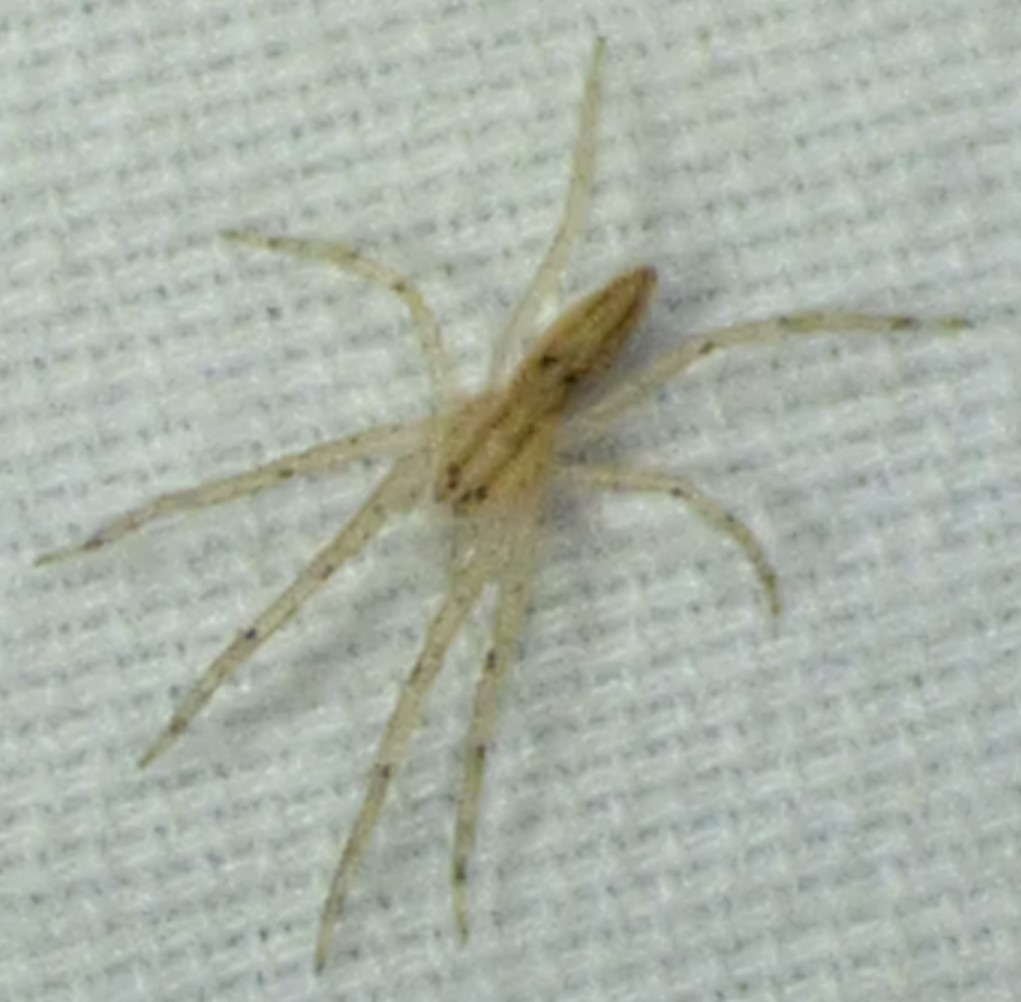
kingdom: Animalia
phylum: Arthropoda
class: Arachnida
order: Araneae
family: Pisauridae
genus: Pisaurina
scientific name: Pisaurina undulata
